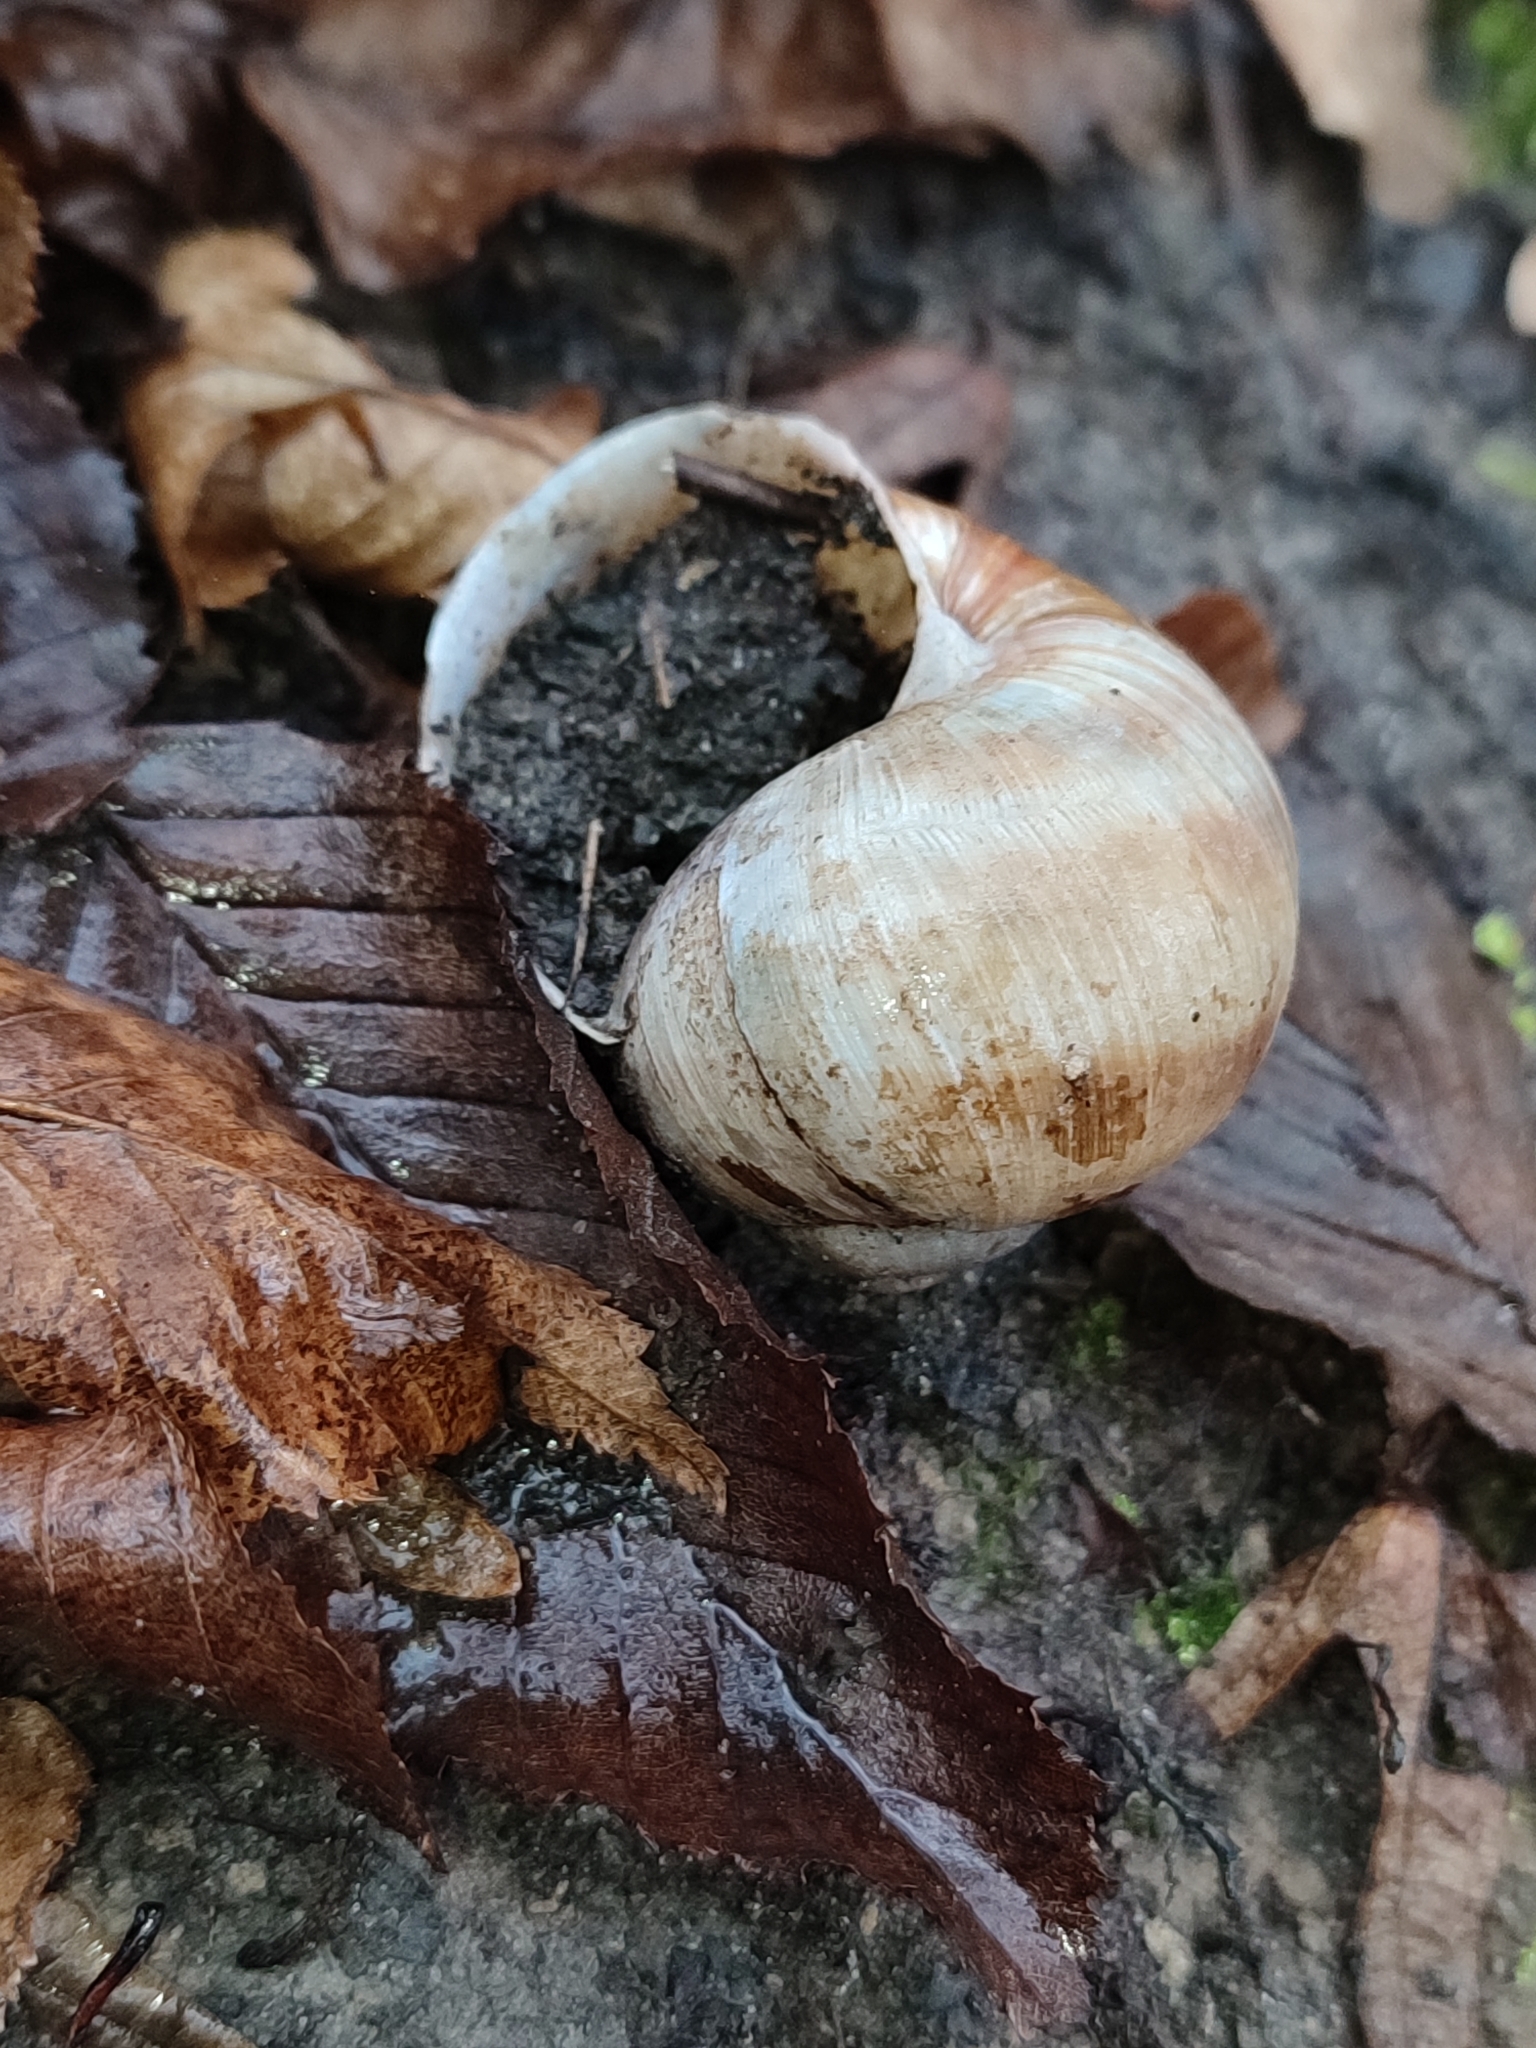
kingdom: Animalia
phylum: Mollusca
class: Gastropoda
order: Stylommatophora
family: Helicidae
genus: Helix
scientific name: Helix pomatia
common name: Roman snail
